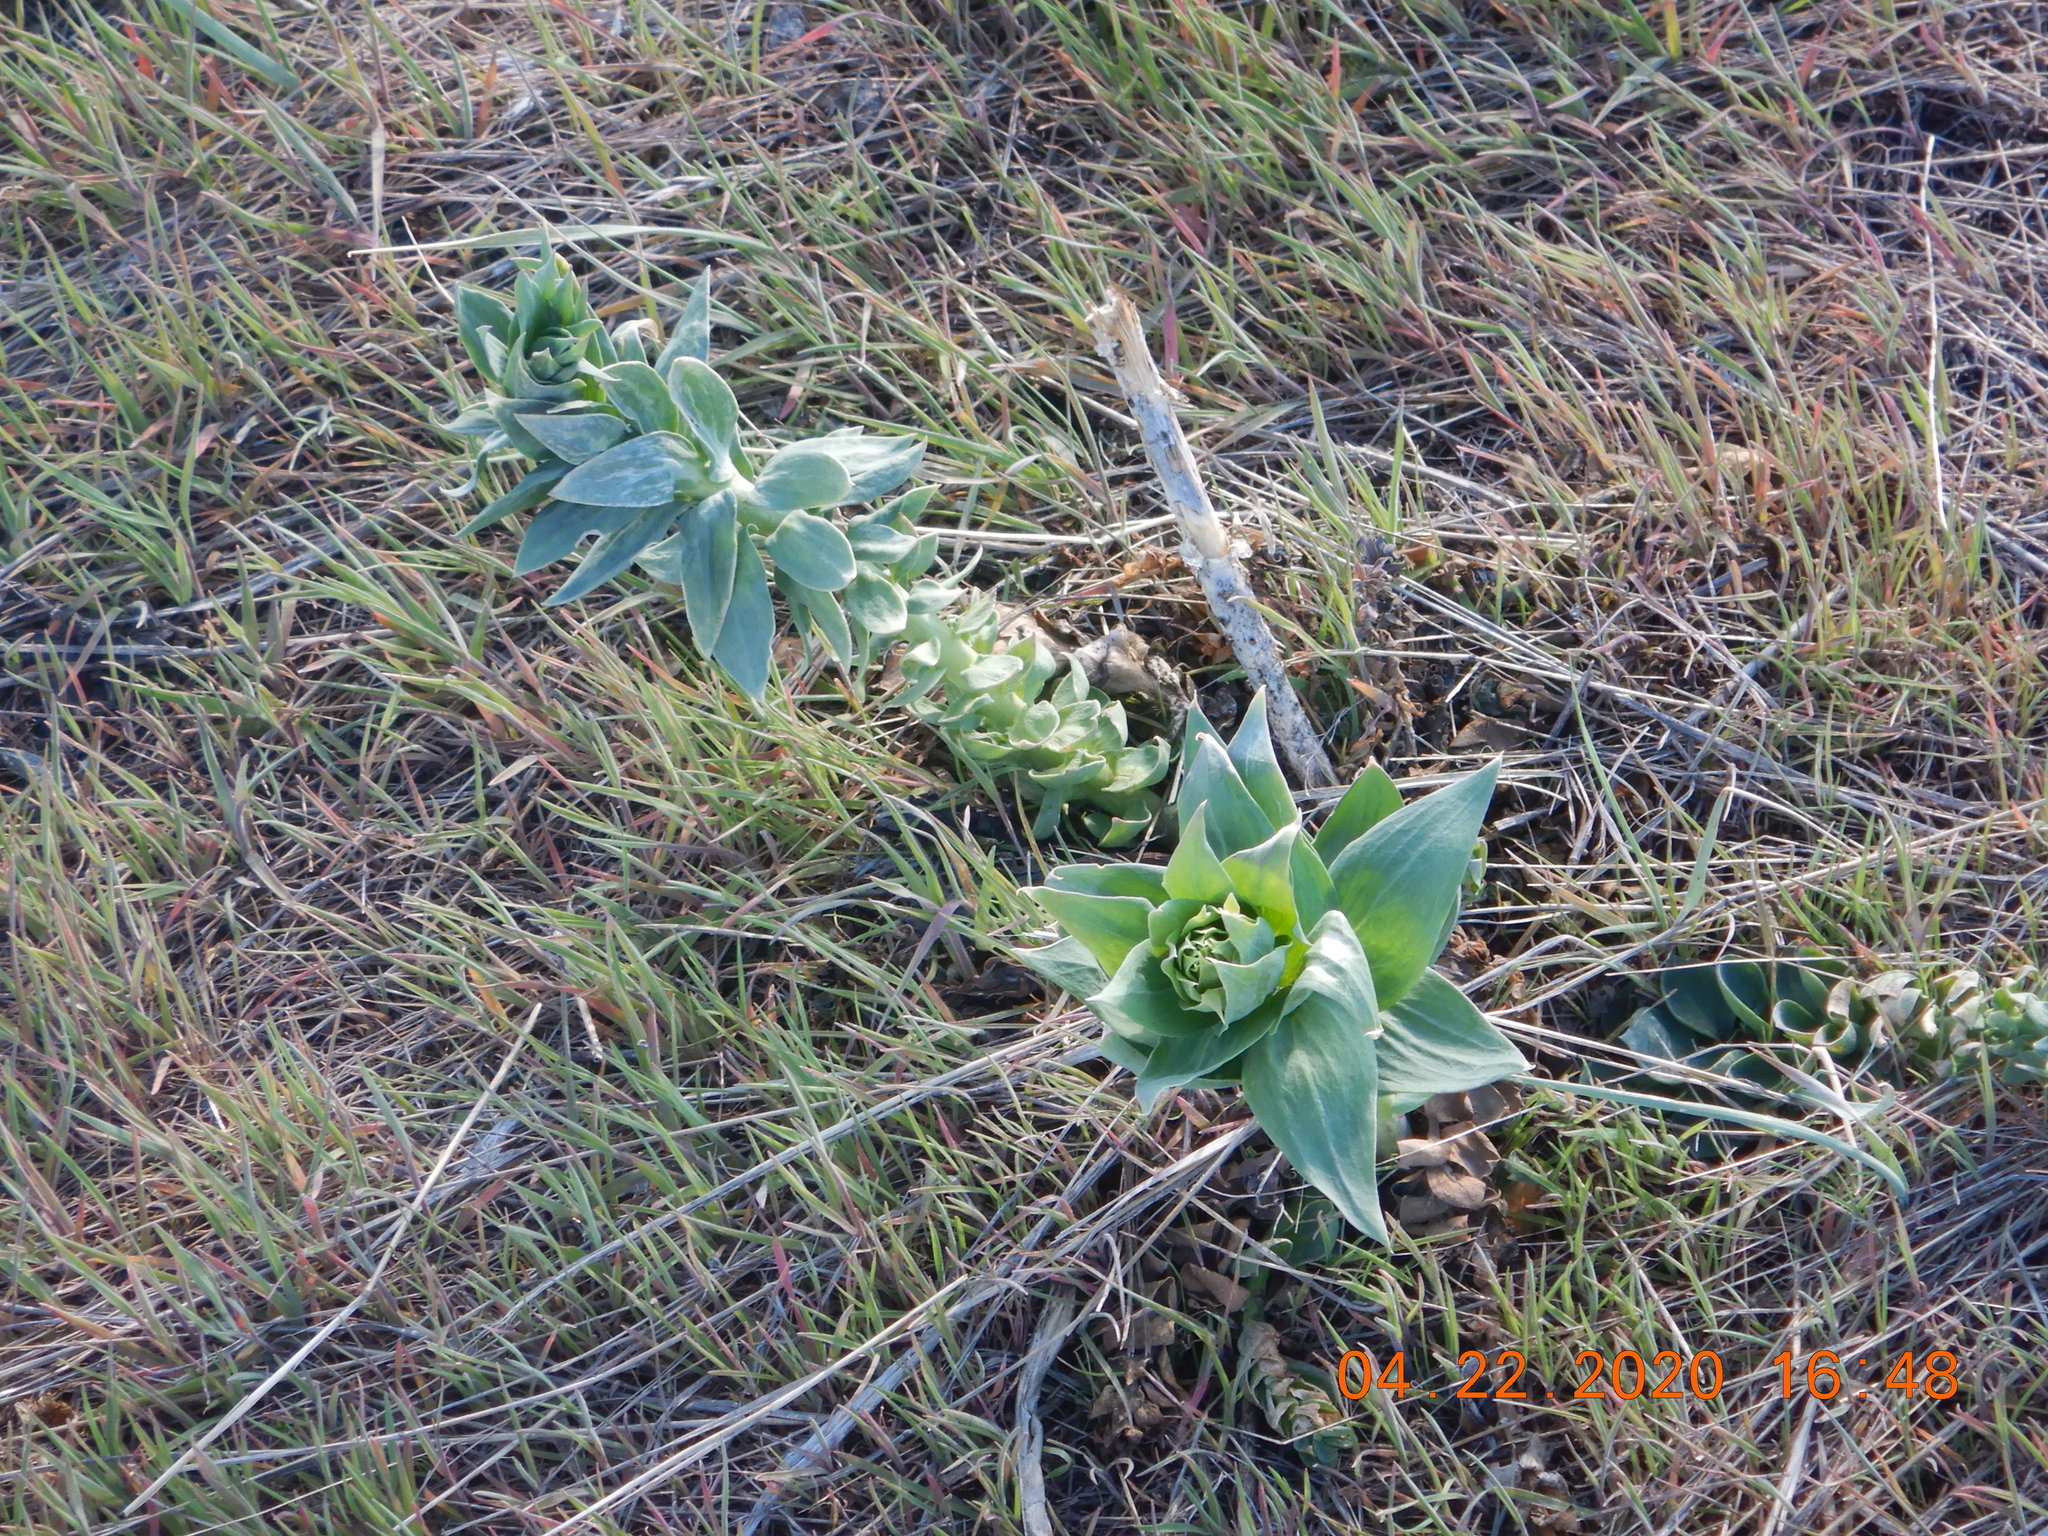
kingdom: Plantae
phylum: Tracheophyta
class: Magnoliopsida
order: Lamiales
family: Plantaginaceae
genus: Linaria
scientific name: Linaria dalmatica
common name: Dalmatian toadflax
